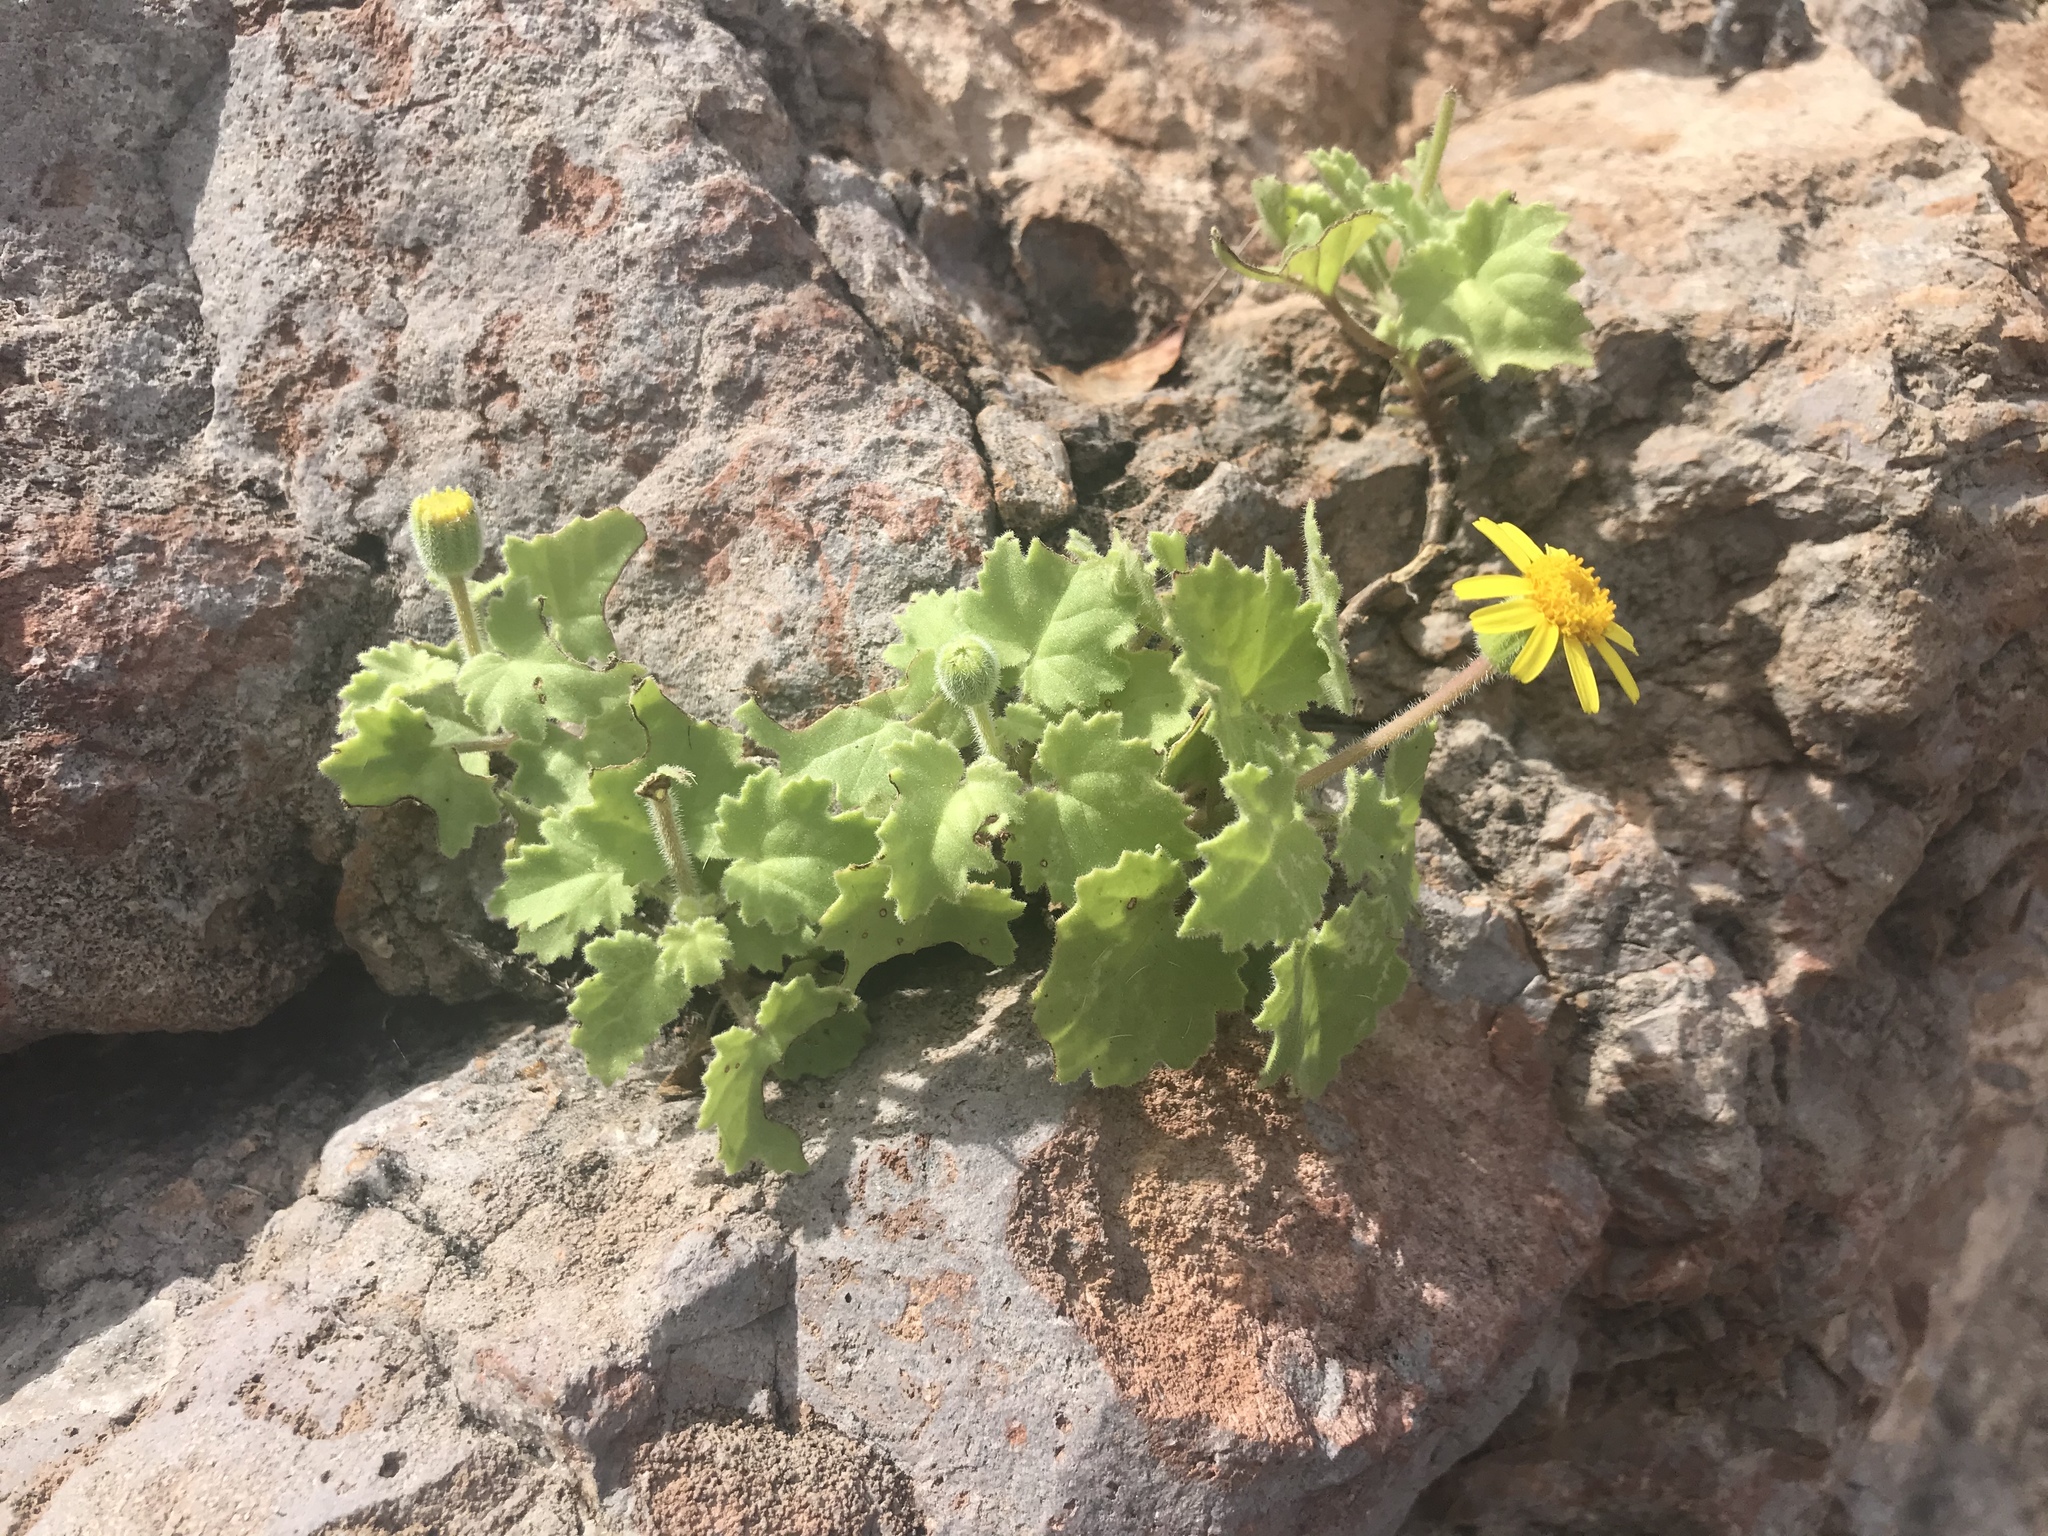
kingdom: Plantae
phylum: Tracheophyta
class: Magnoliopsida
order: Asterales
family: Asteraceae
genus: Laphamia
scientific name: Laphamia sanchezii
